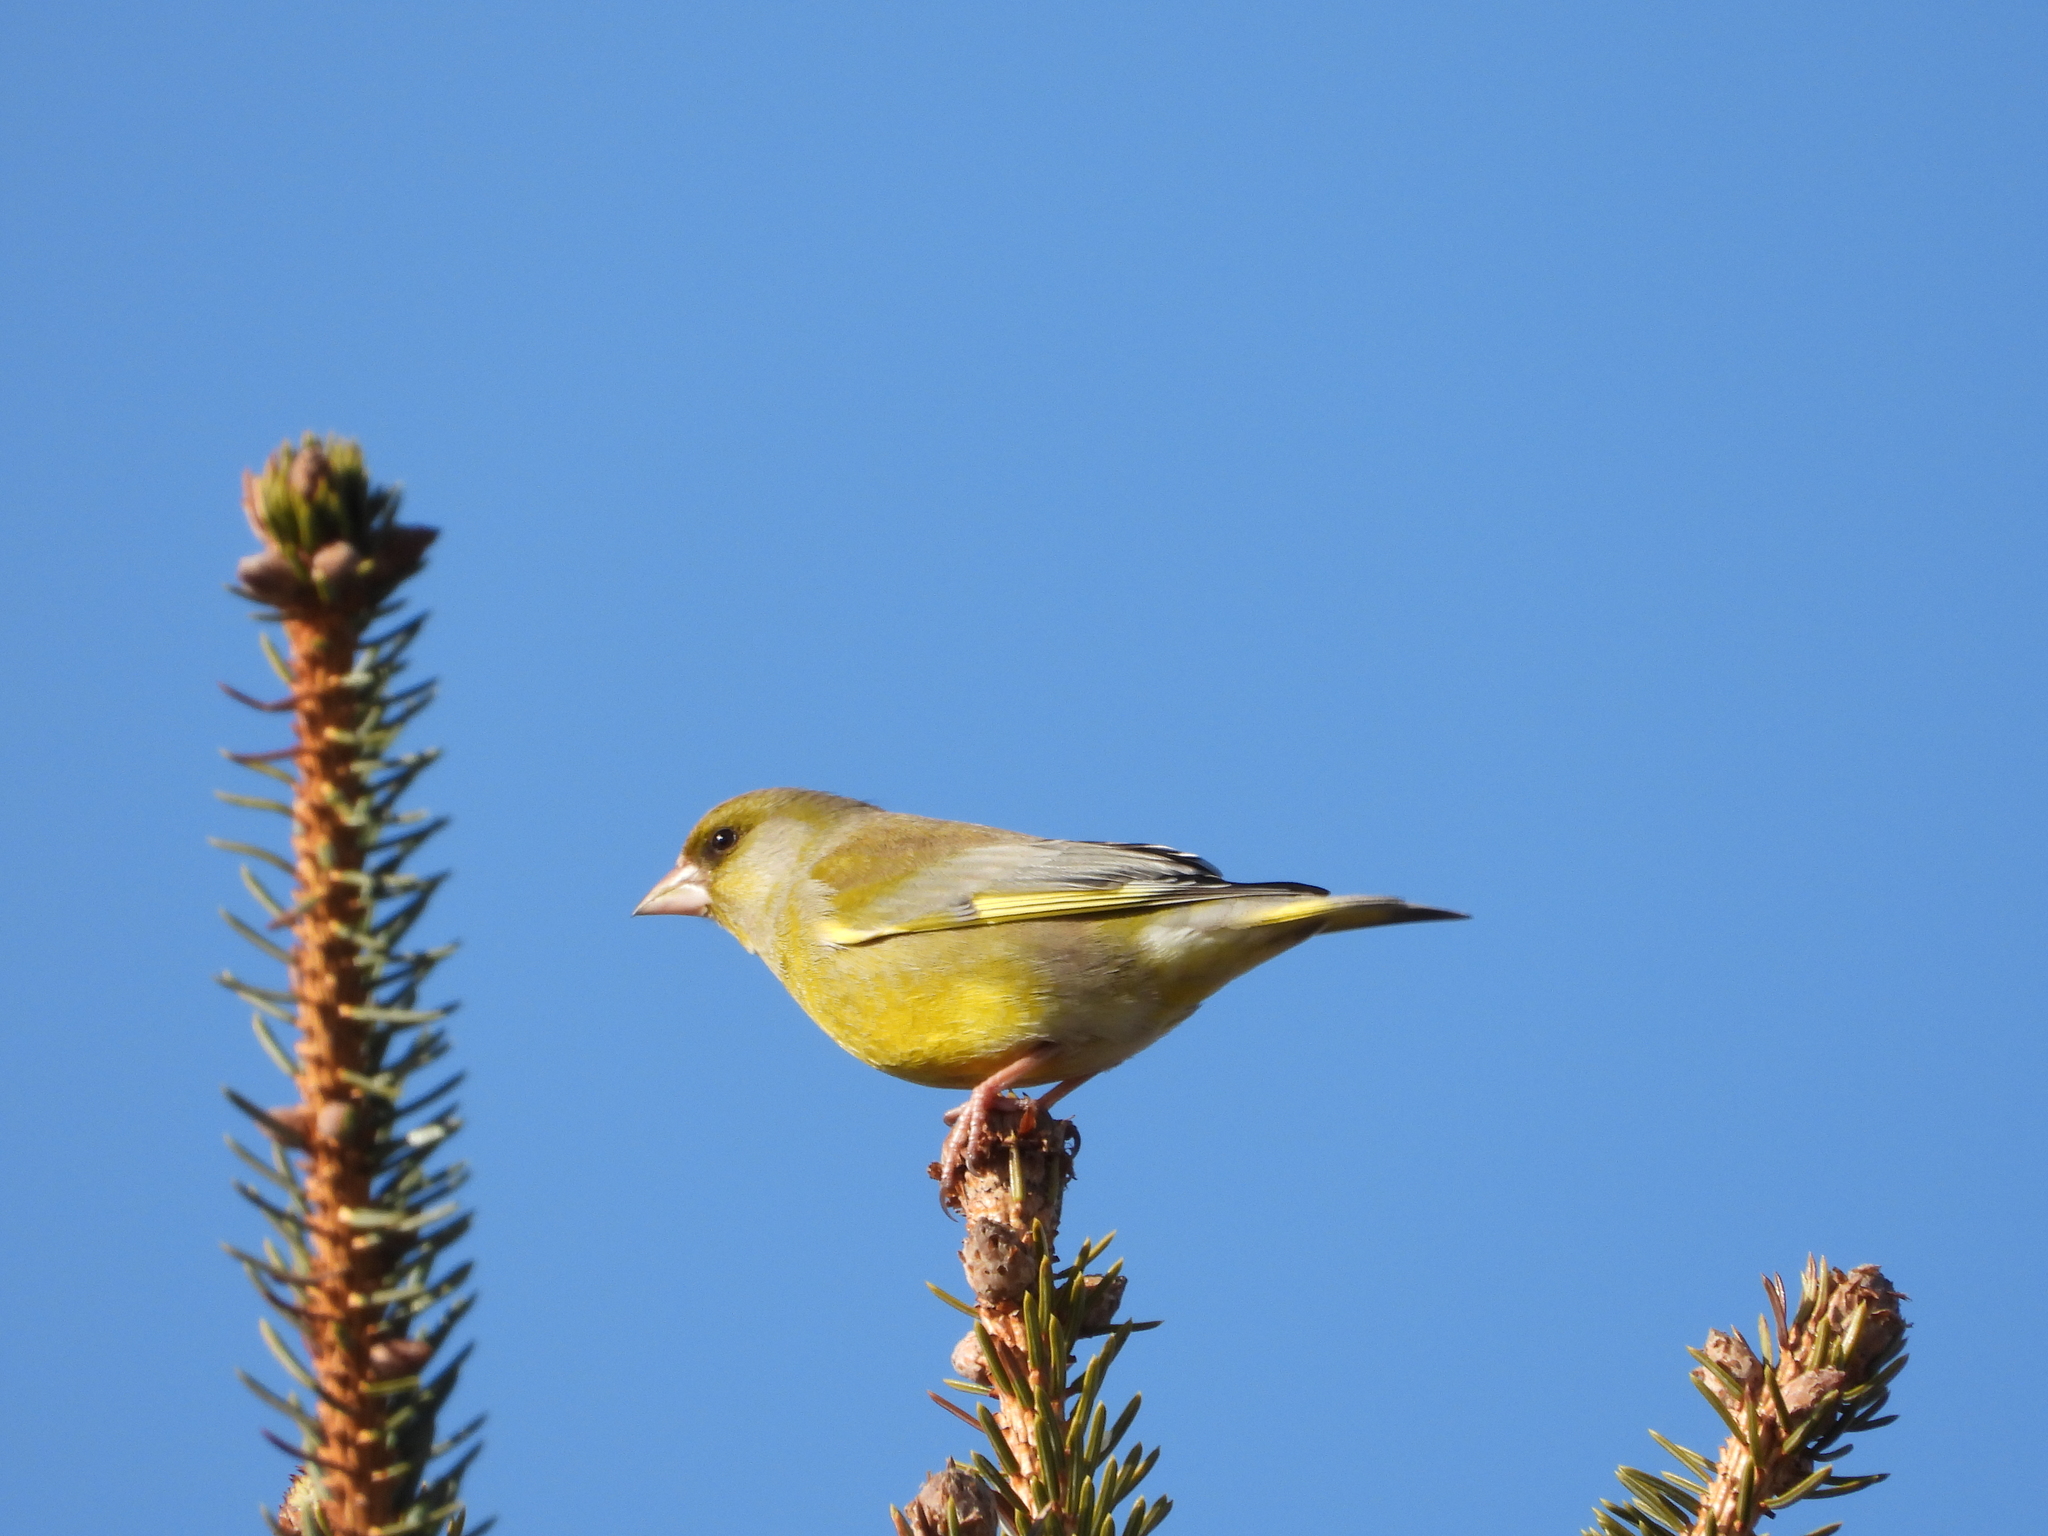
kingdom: Plantae
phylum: Tracheophyta
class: Liliopsida
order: Poales
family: Poaceae
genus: Chloris
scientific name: Chloris chloris
